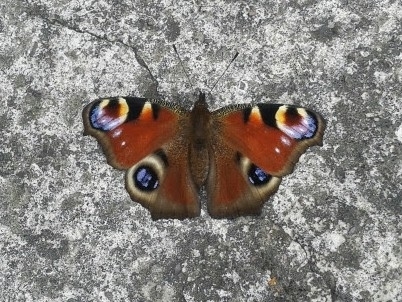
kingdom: Animalia
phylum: Arthropoda
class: Insecta
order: Lepidoptera
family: Nymphalidae
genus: Aglais
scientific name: Aglais io
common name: Peacock
